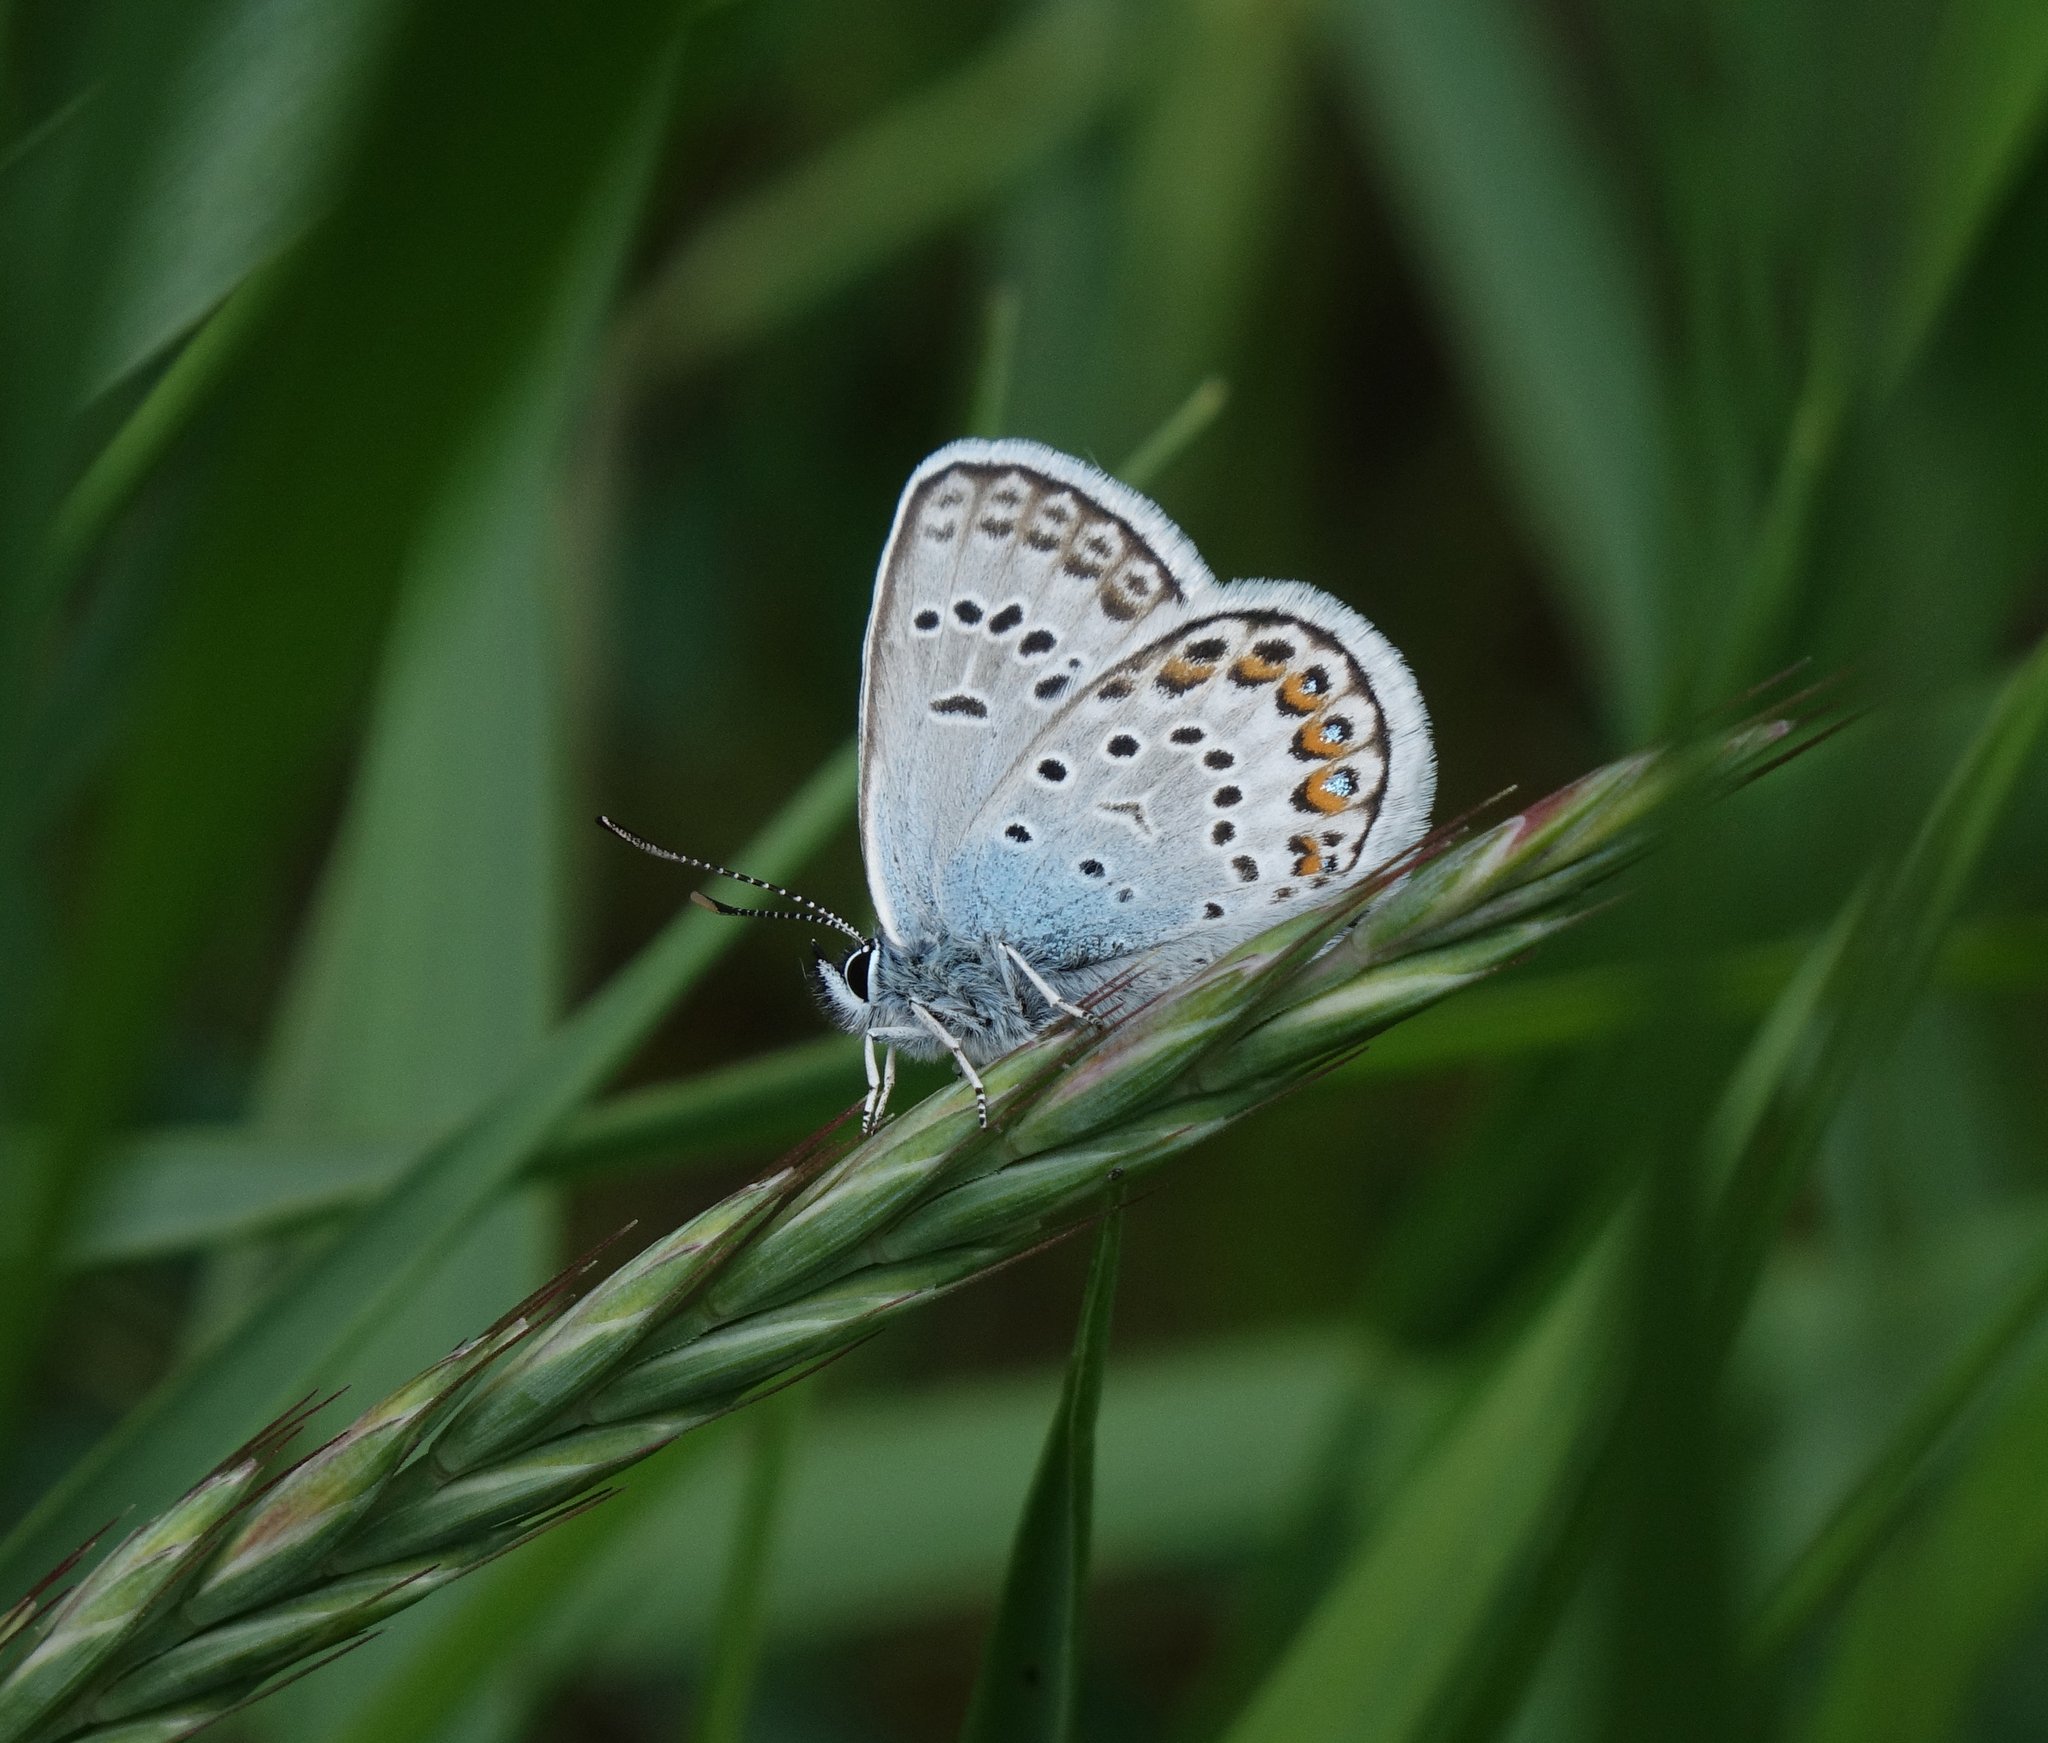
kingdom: Animalia
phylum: Arthropoda
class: Insecta
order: Lepidoptera
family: Lycaenidae
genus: Plebejus
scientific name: Plebejus argus
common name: Silver-studded blue
